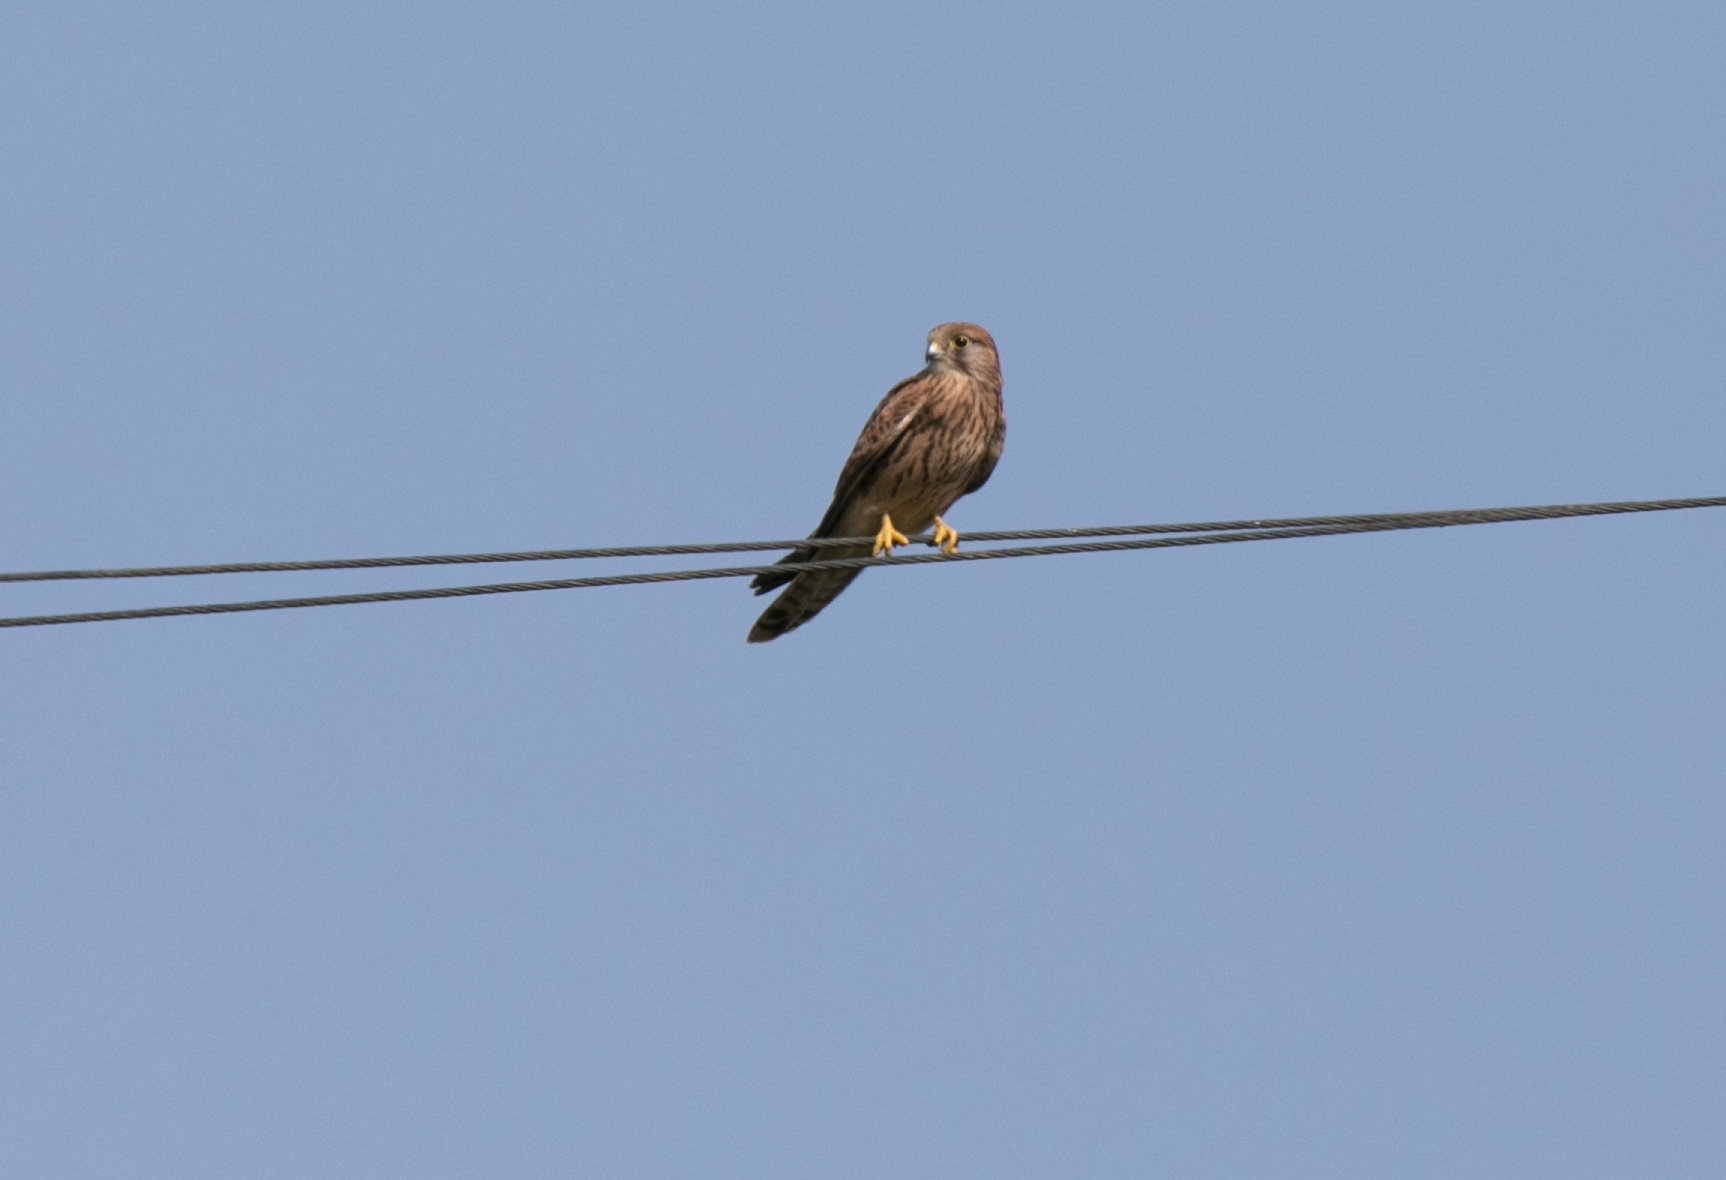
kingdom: Animalia
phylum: Chordata
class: Aves
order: Falconiformes
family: Falconidae
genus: Falco
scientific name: Falco tinnunculus
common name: Common kestrel
